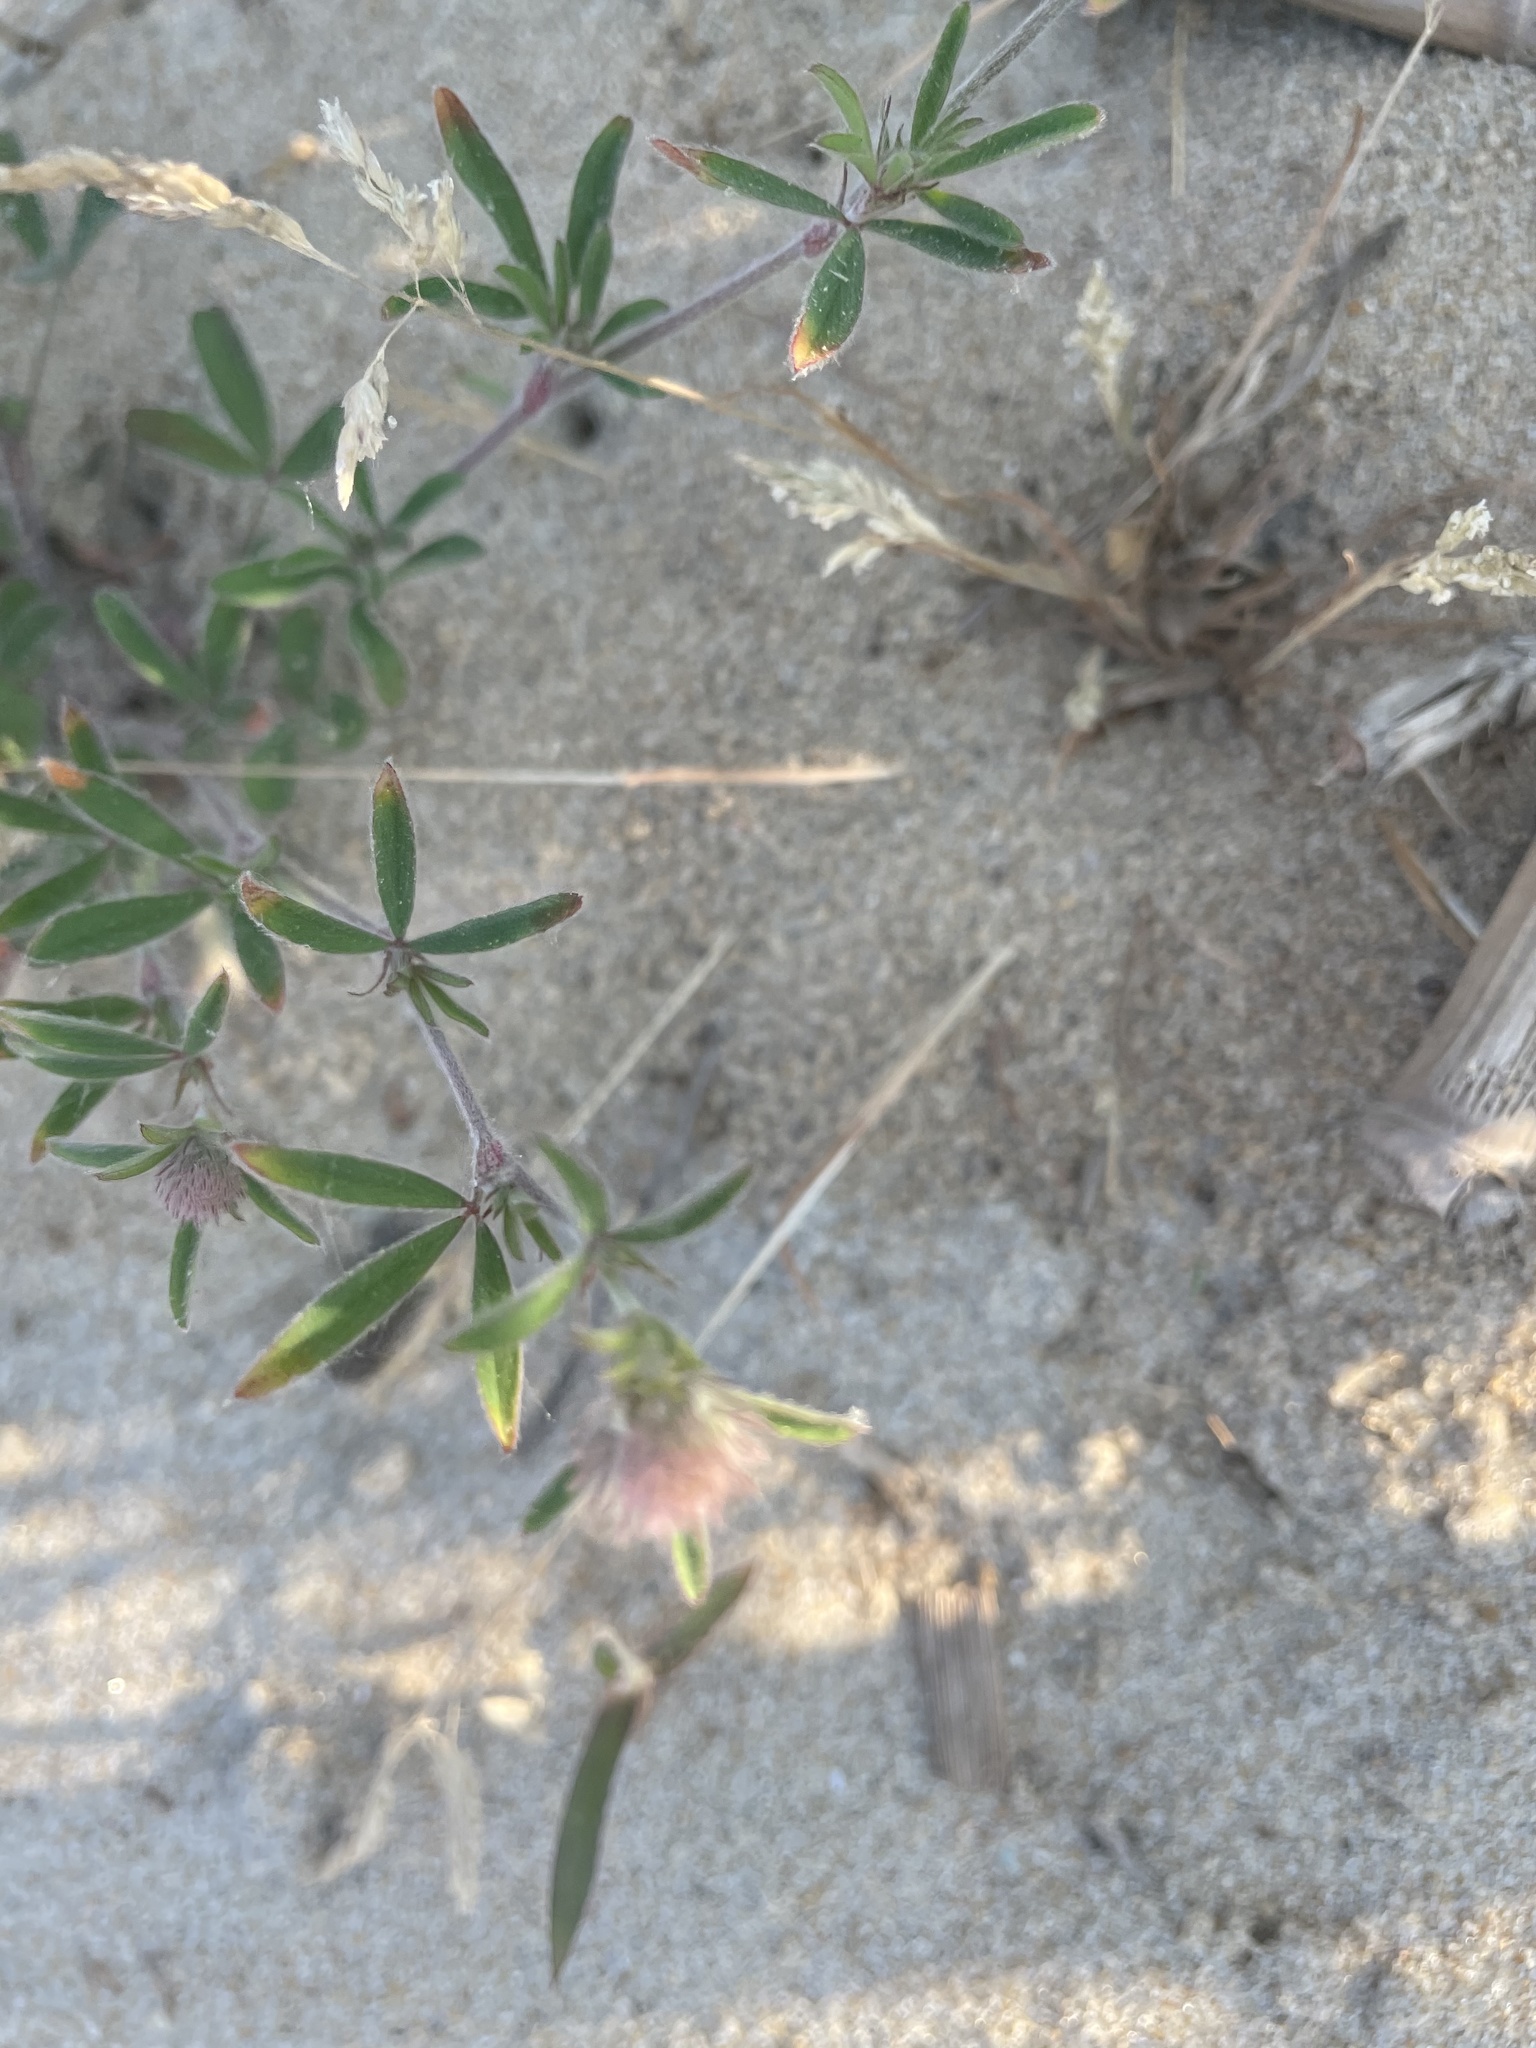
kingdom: Plantae
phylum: Tracheophyta
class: Magnoliopsida
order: Fabales
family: Fabaceae
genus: Trifolium
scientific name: Trifolium arvense
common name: Hare's-foot clover
